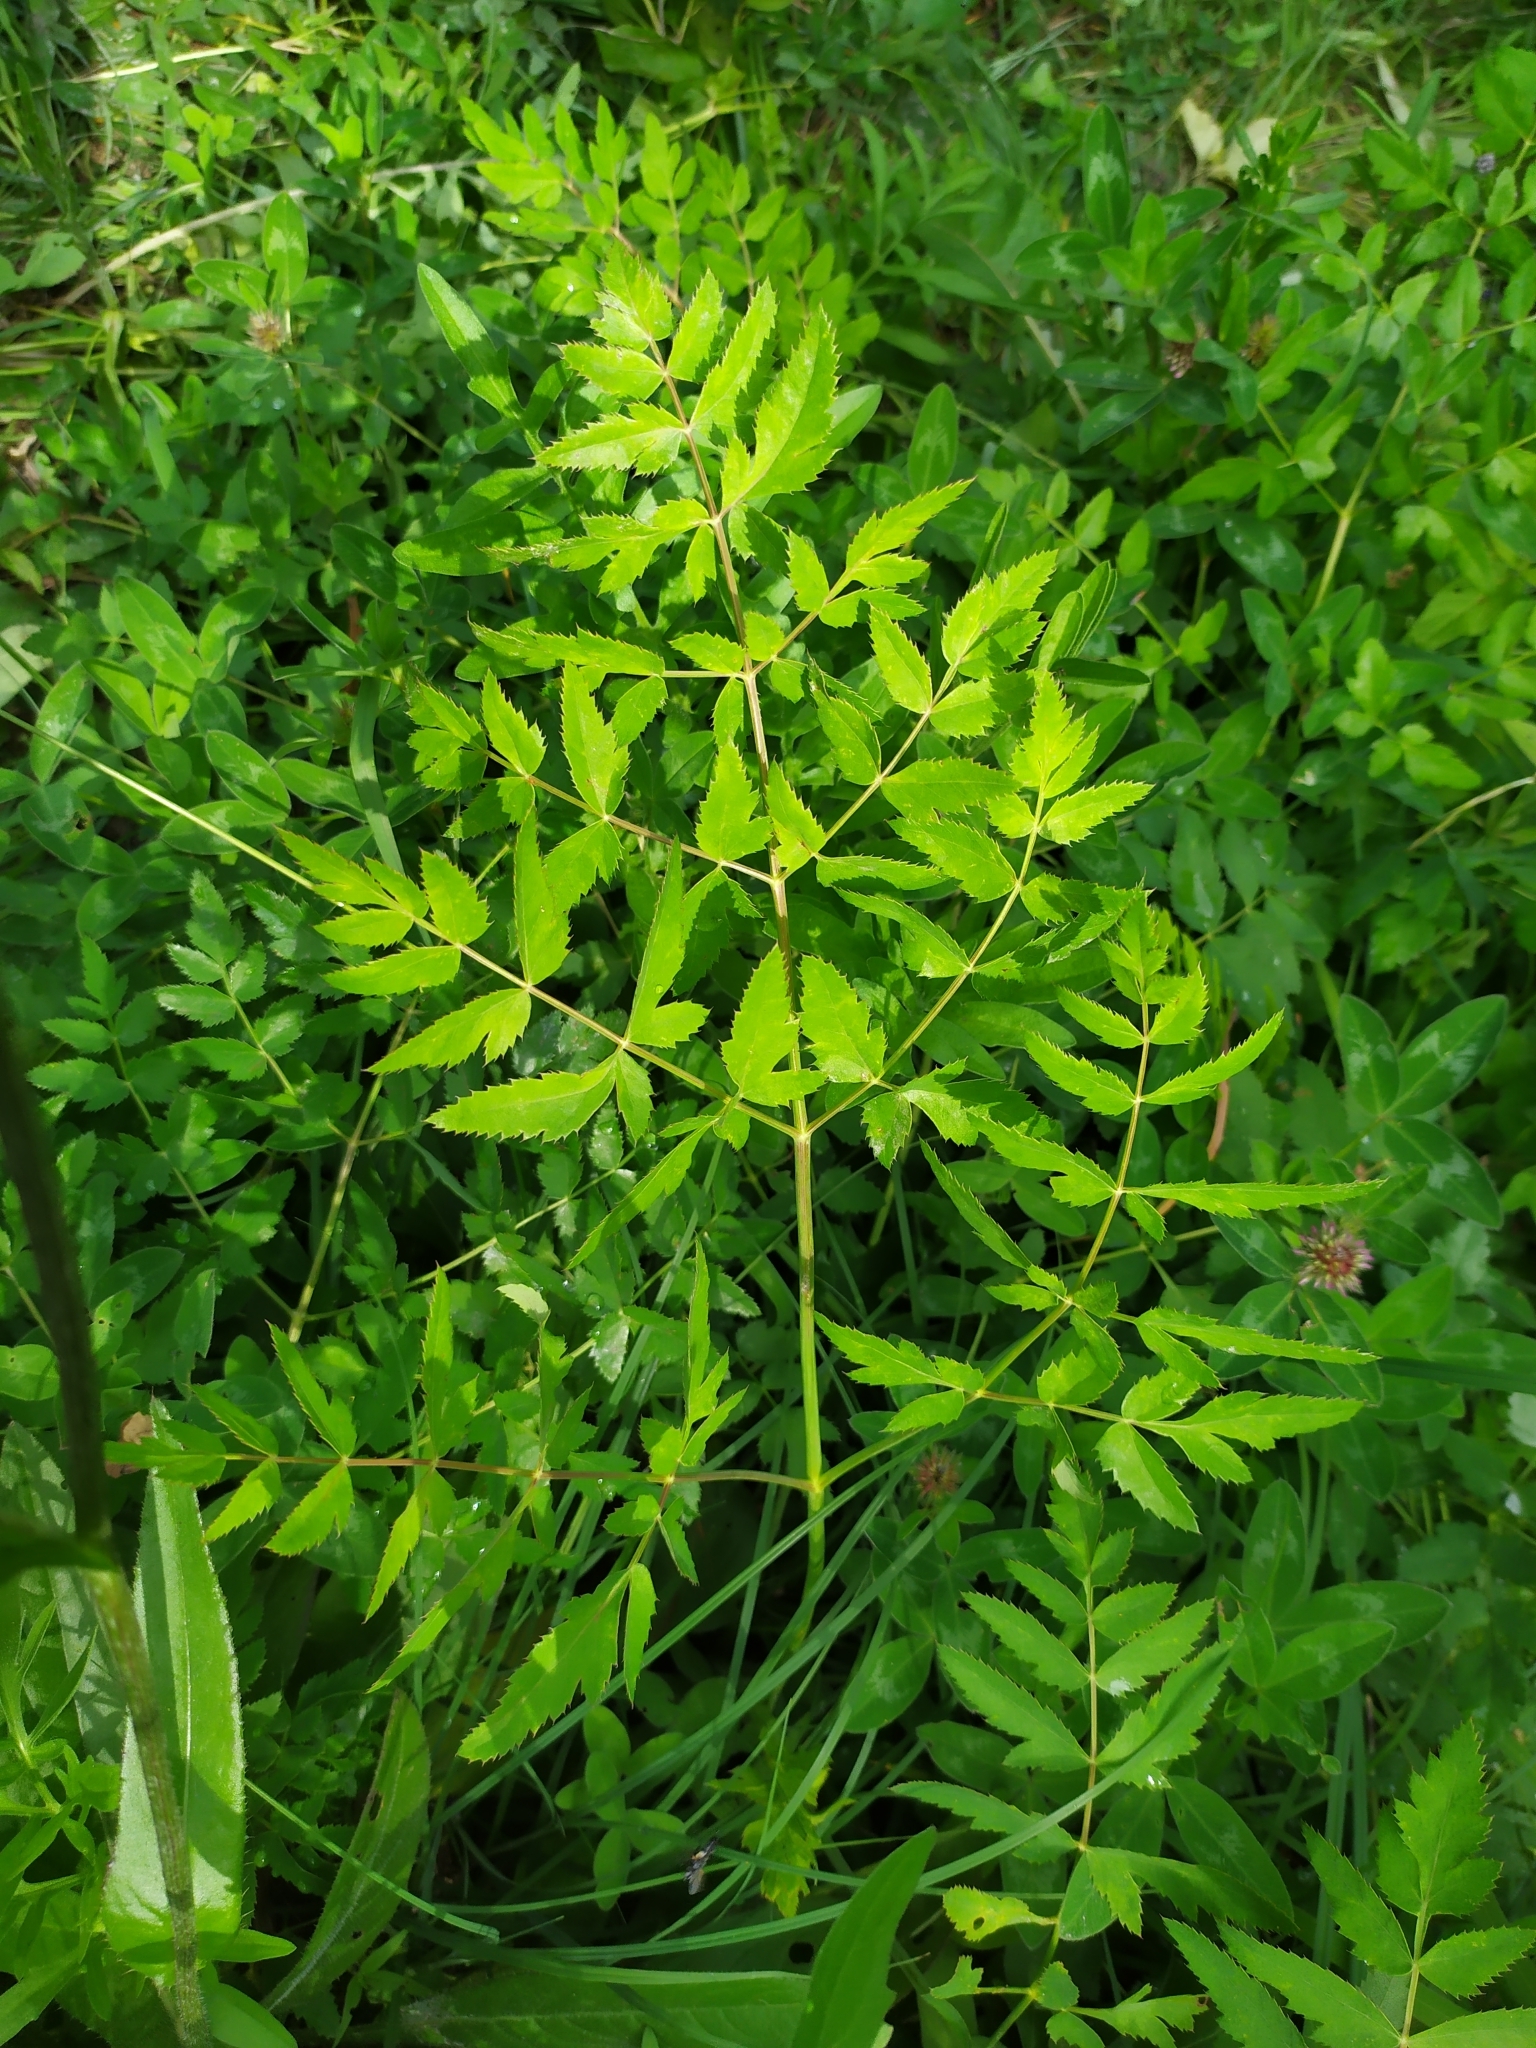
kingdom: Plantae
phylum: Tracheophyta
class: Magnoliopsida
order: Apiales
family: Apiaceae
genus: Cervaria
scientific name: Cervaria rivini
